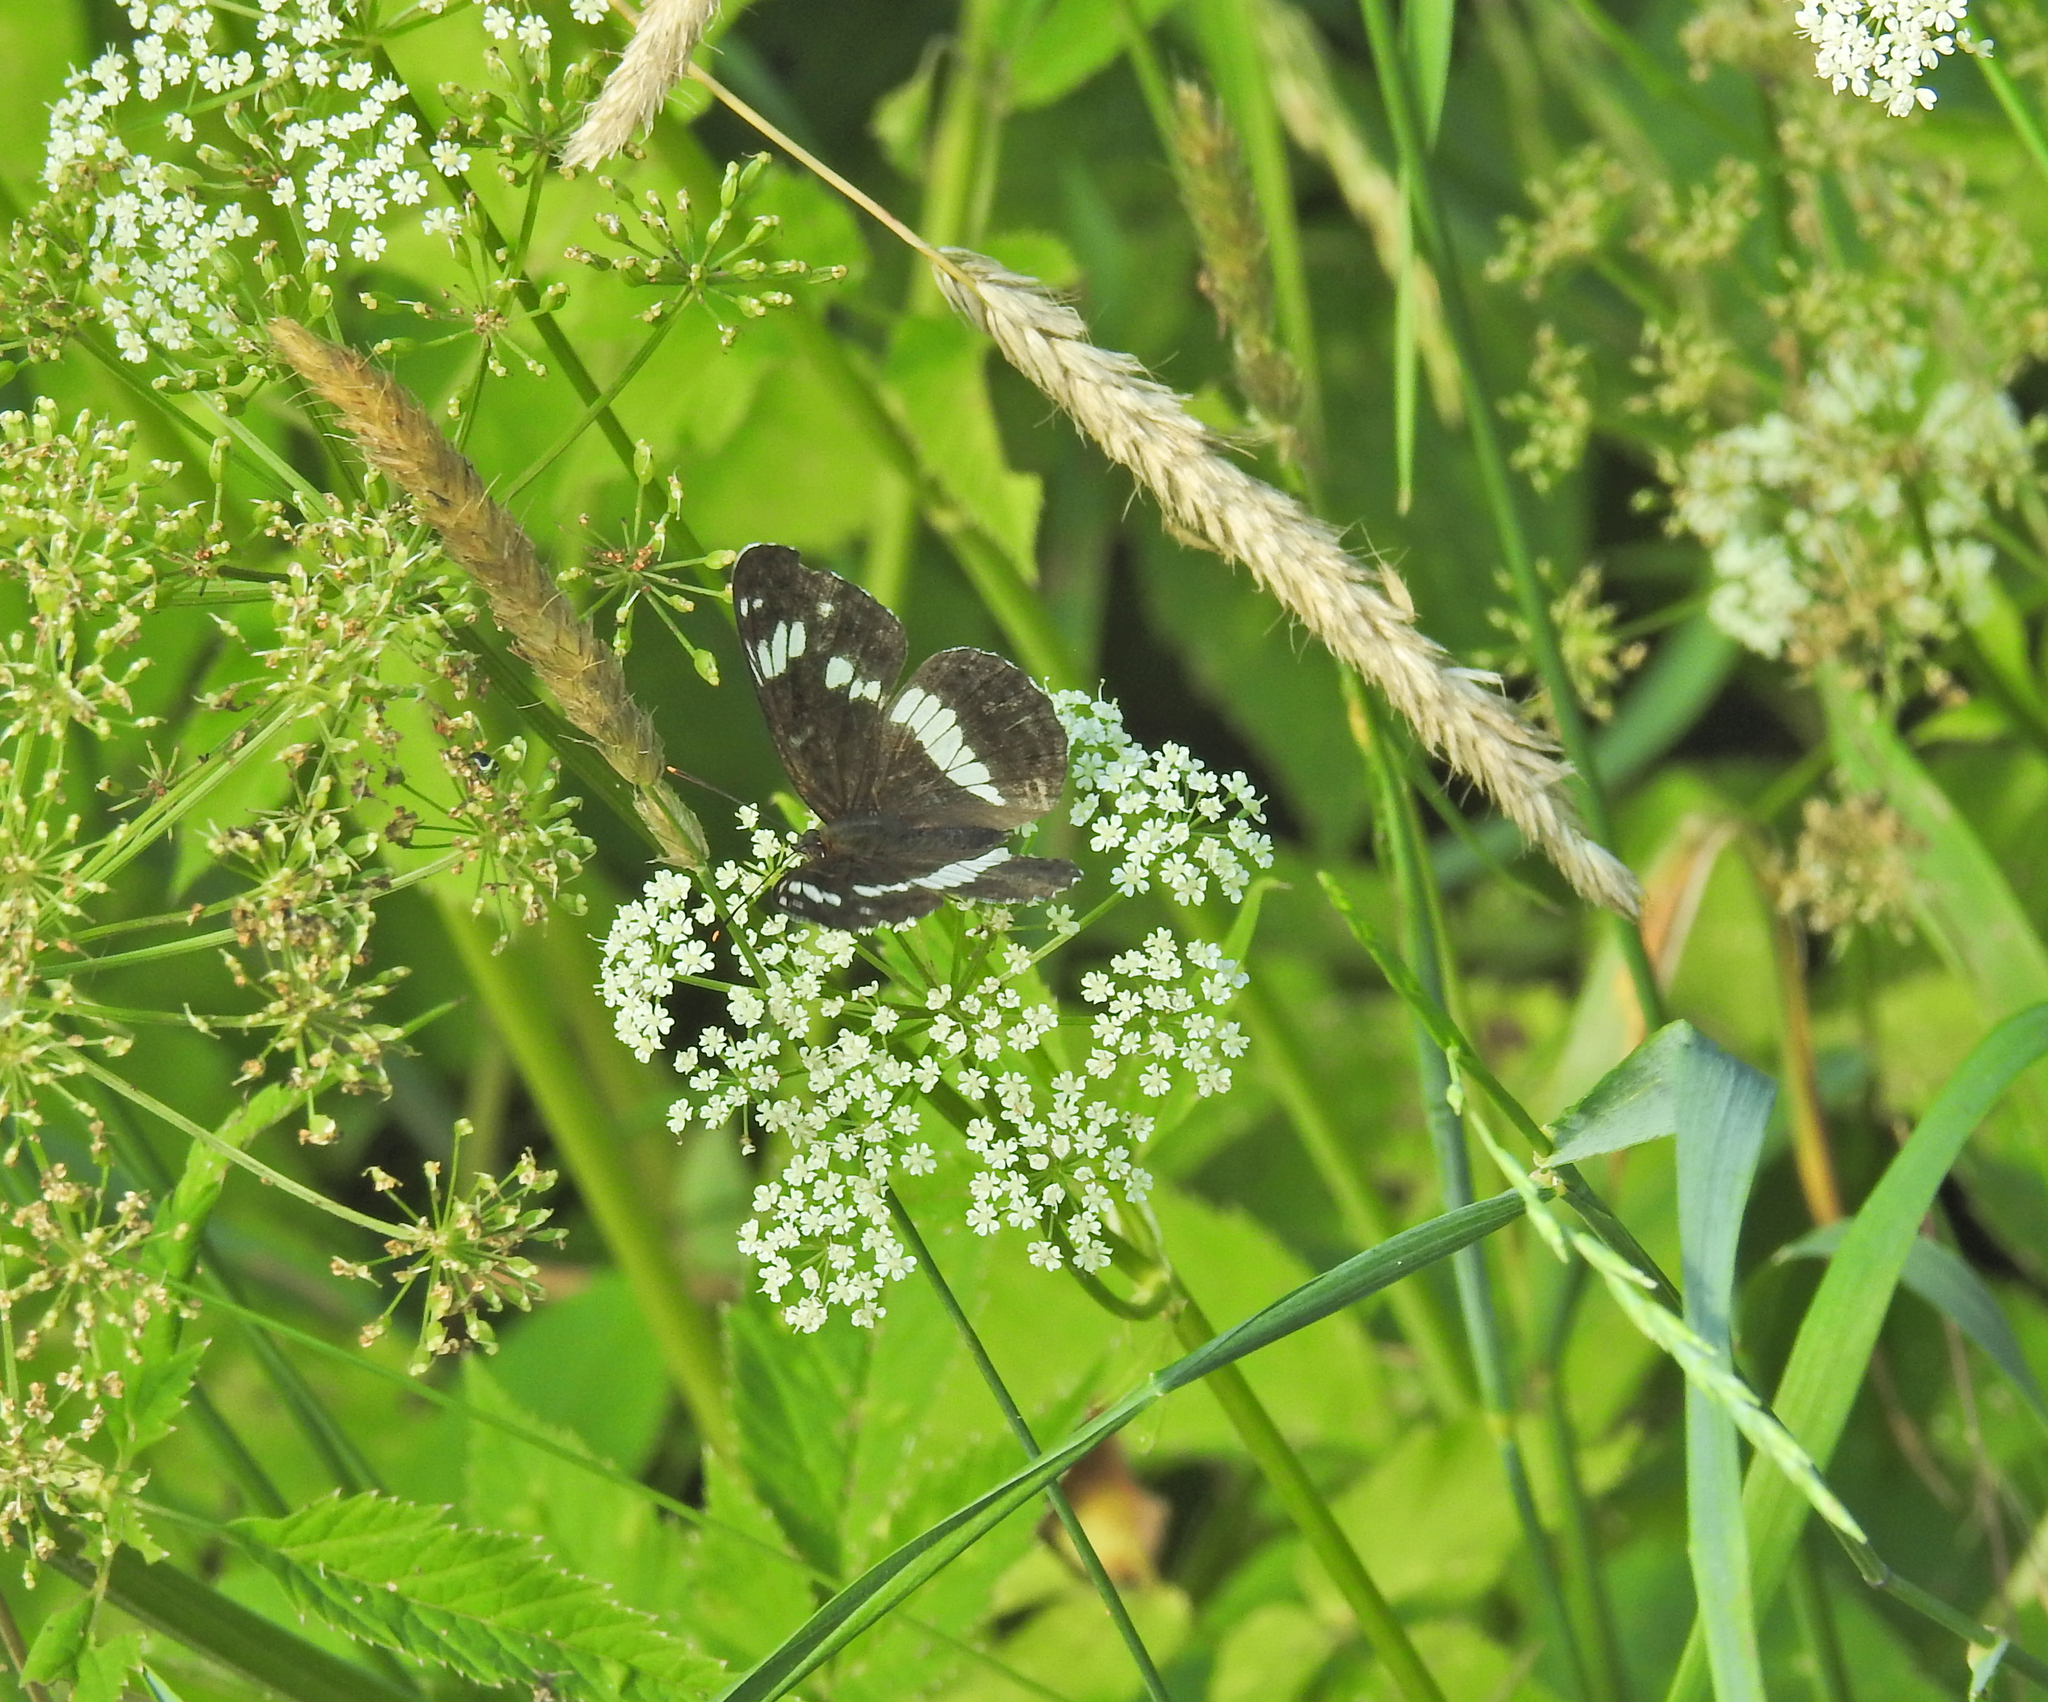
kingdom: Animalia
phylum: Arthropoda
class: Insecta
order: Lepidoptera
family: Nymphalidae
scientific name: Nymphalidae
